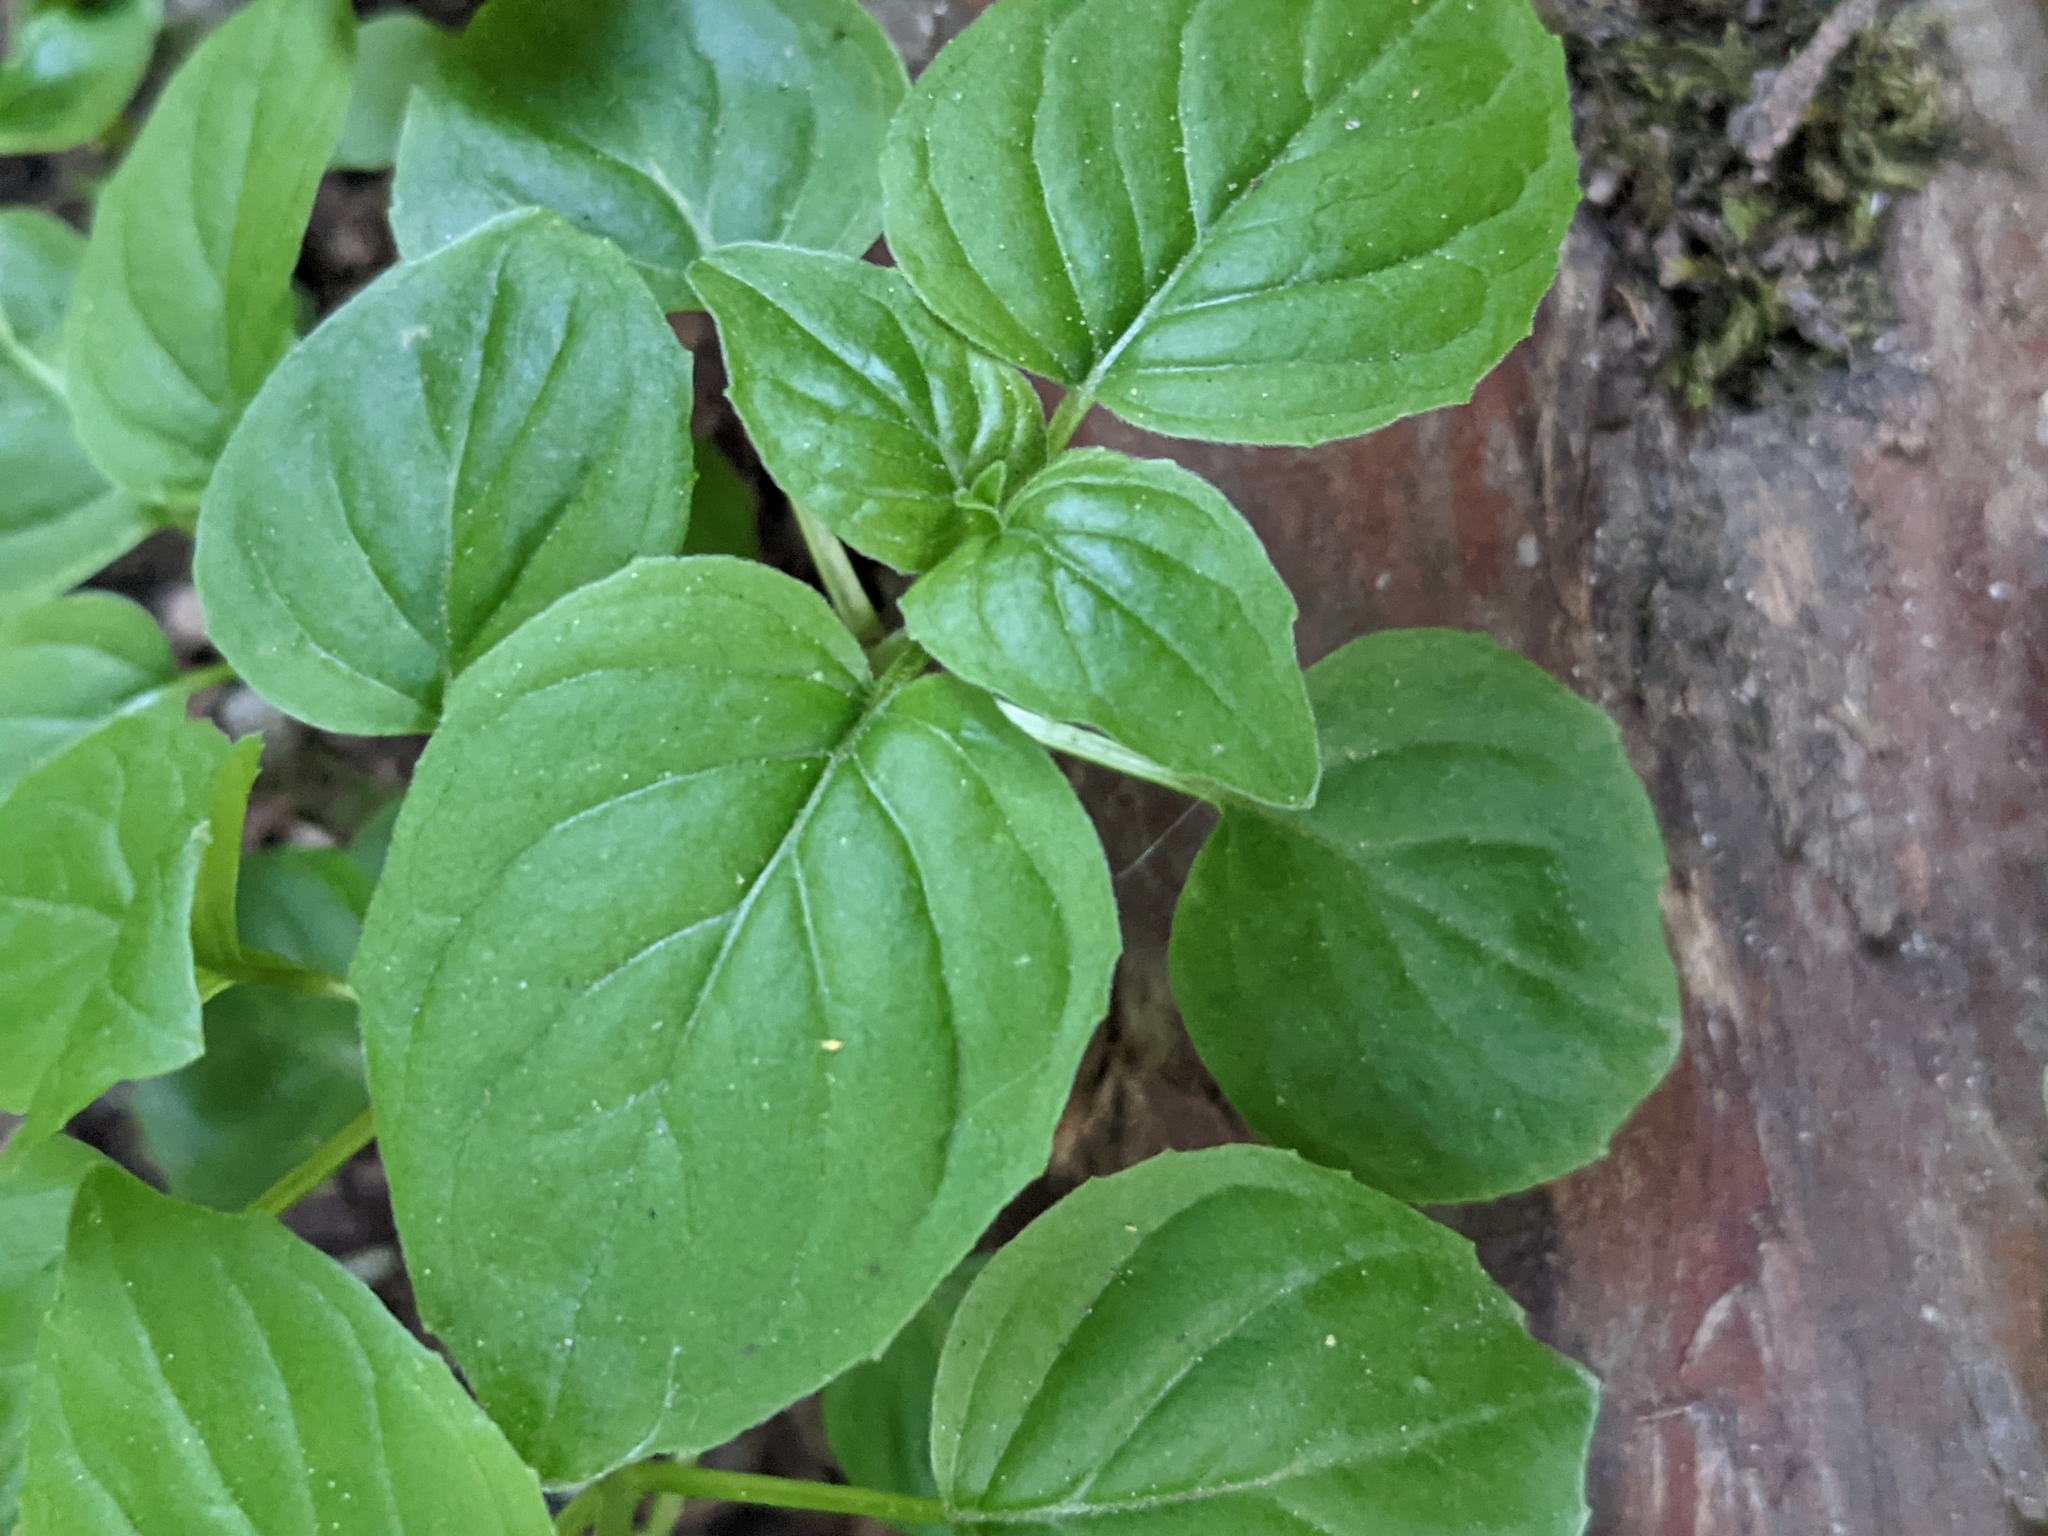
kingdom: Plantae
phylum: Tracheophyta
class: Magnoliopsida
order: Myrtales
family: Onagraceae
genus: Circaea
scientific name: Circaea alpina
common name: Alpine enchanter's-nightshade
